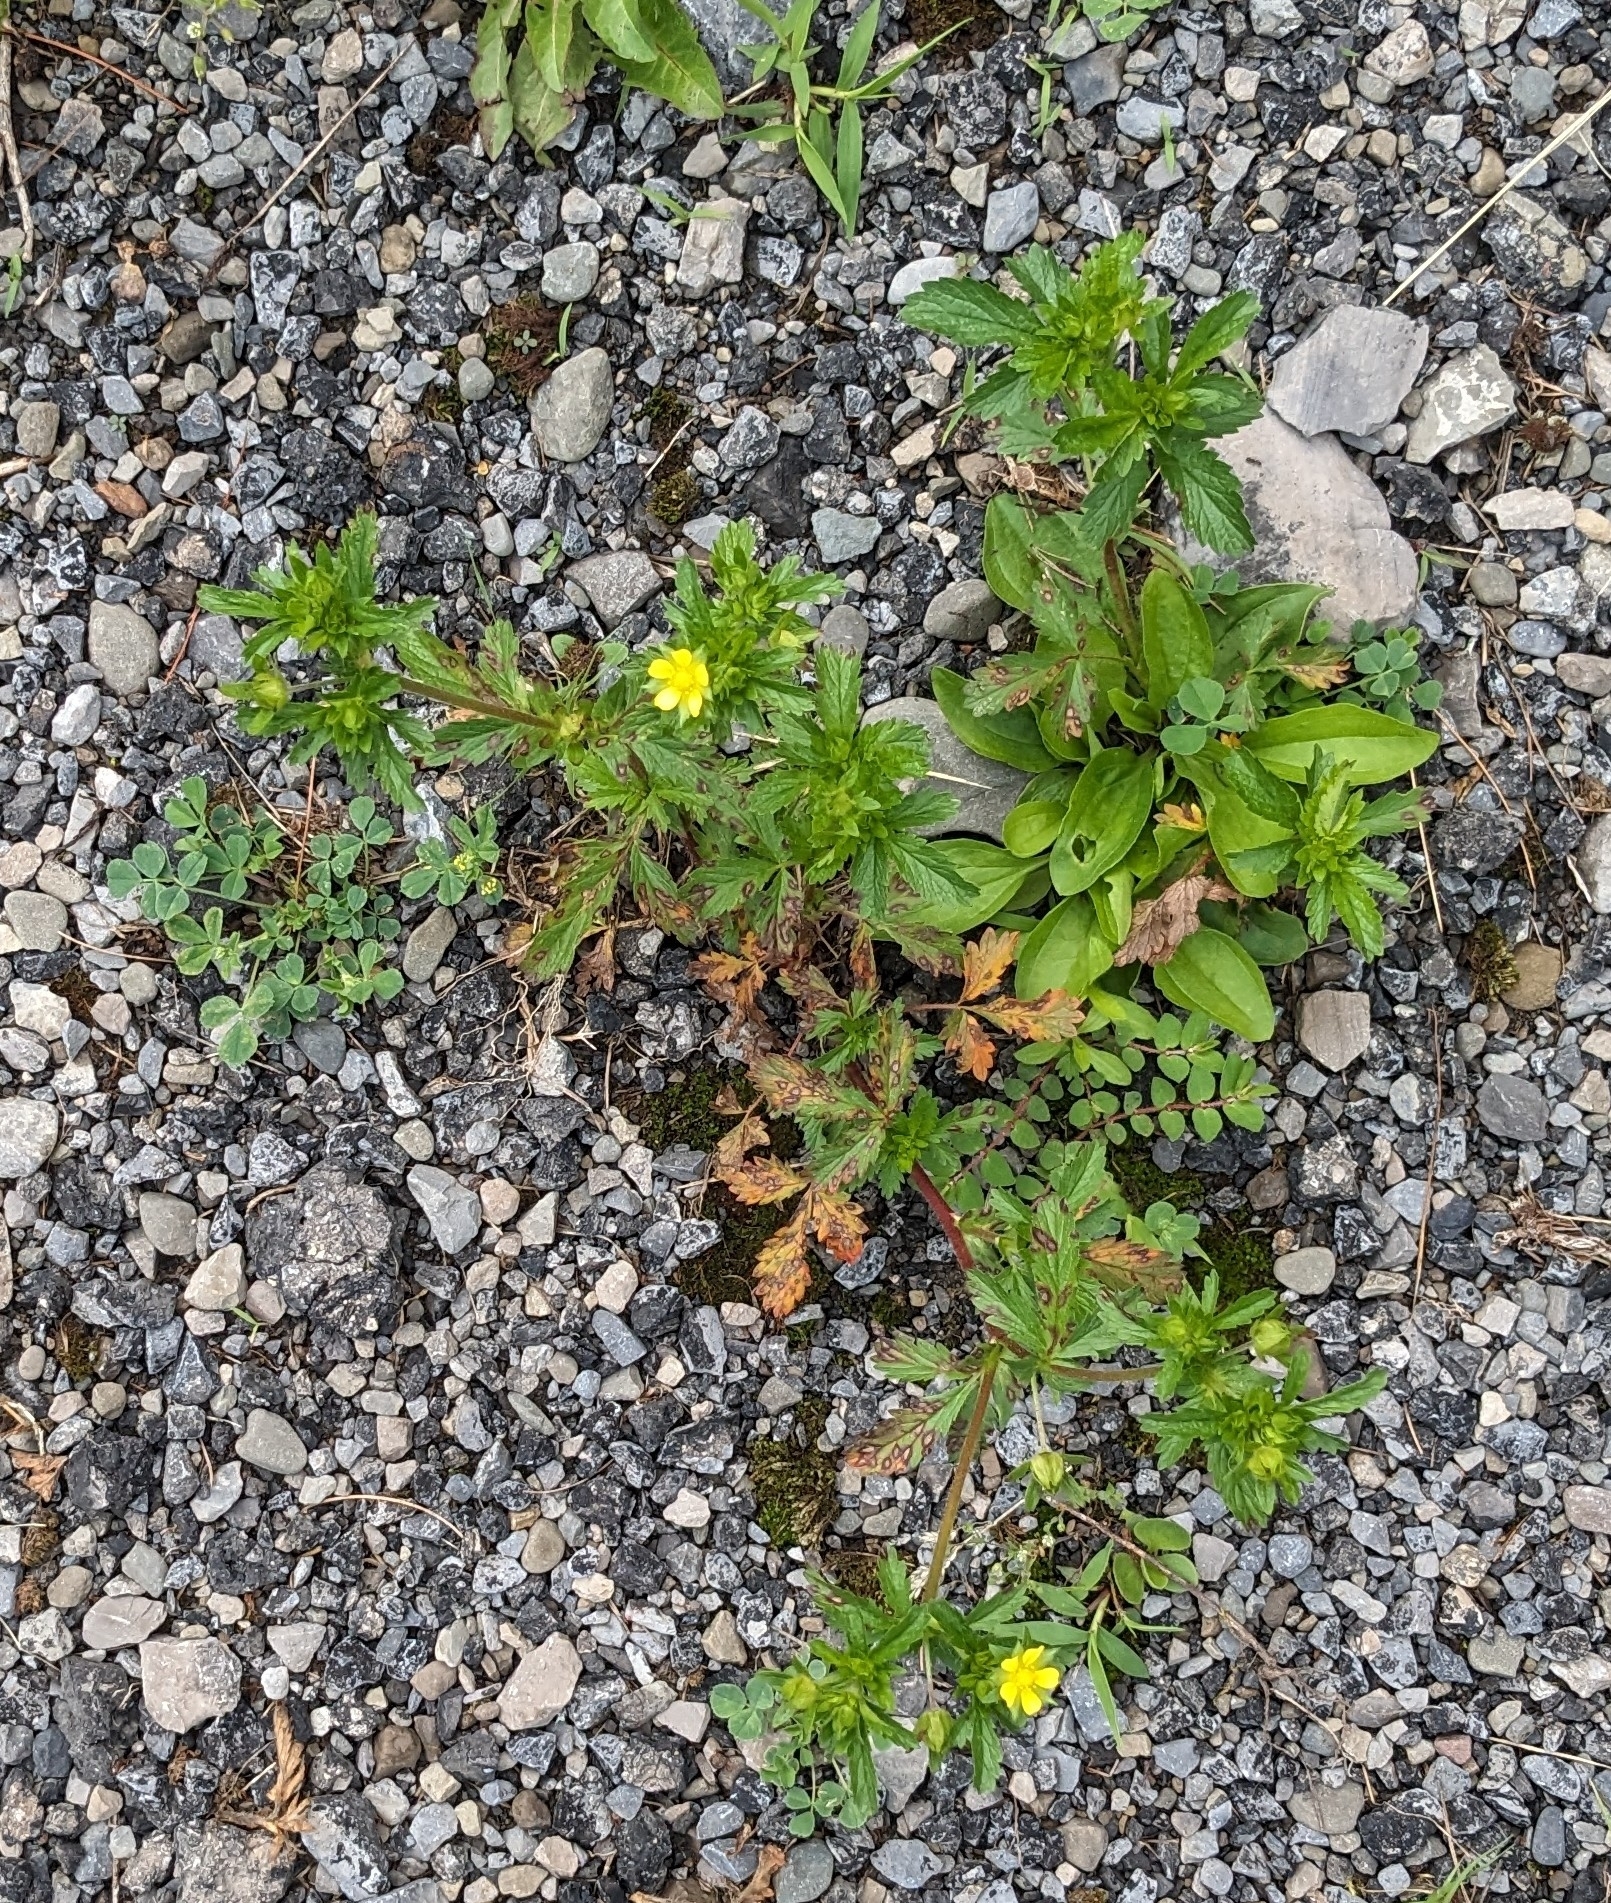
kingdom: Plantae
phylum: Tracheophyta
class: Magnoliopsida
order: Rosales
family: Rosaceae
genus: Potentilla
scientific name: Potentilla norvegica
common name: Ternate-leaved cinquefoil
